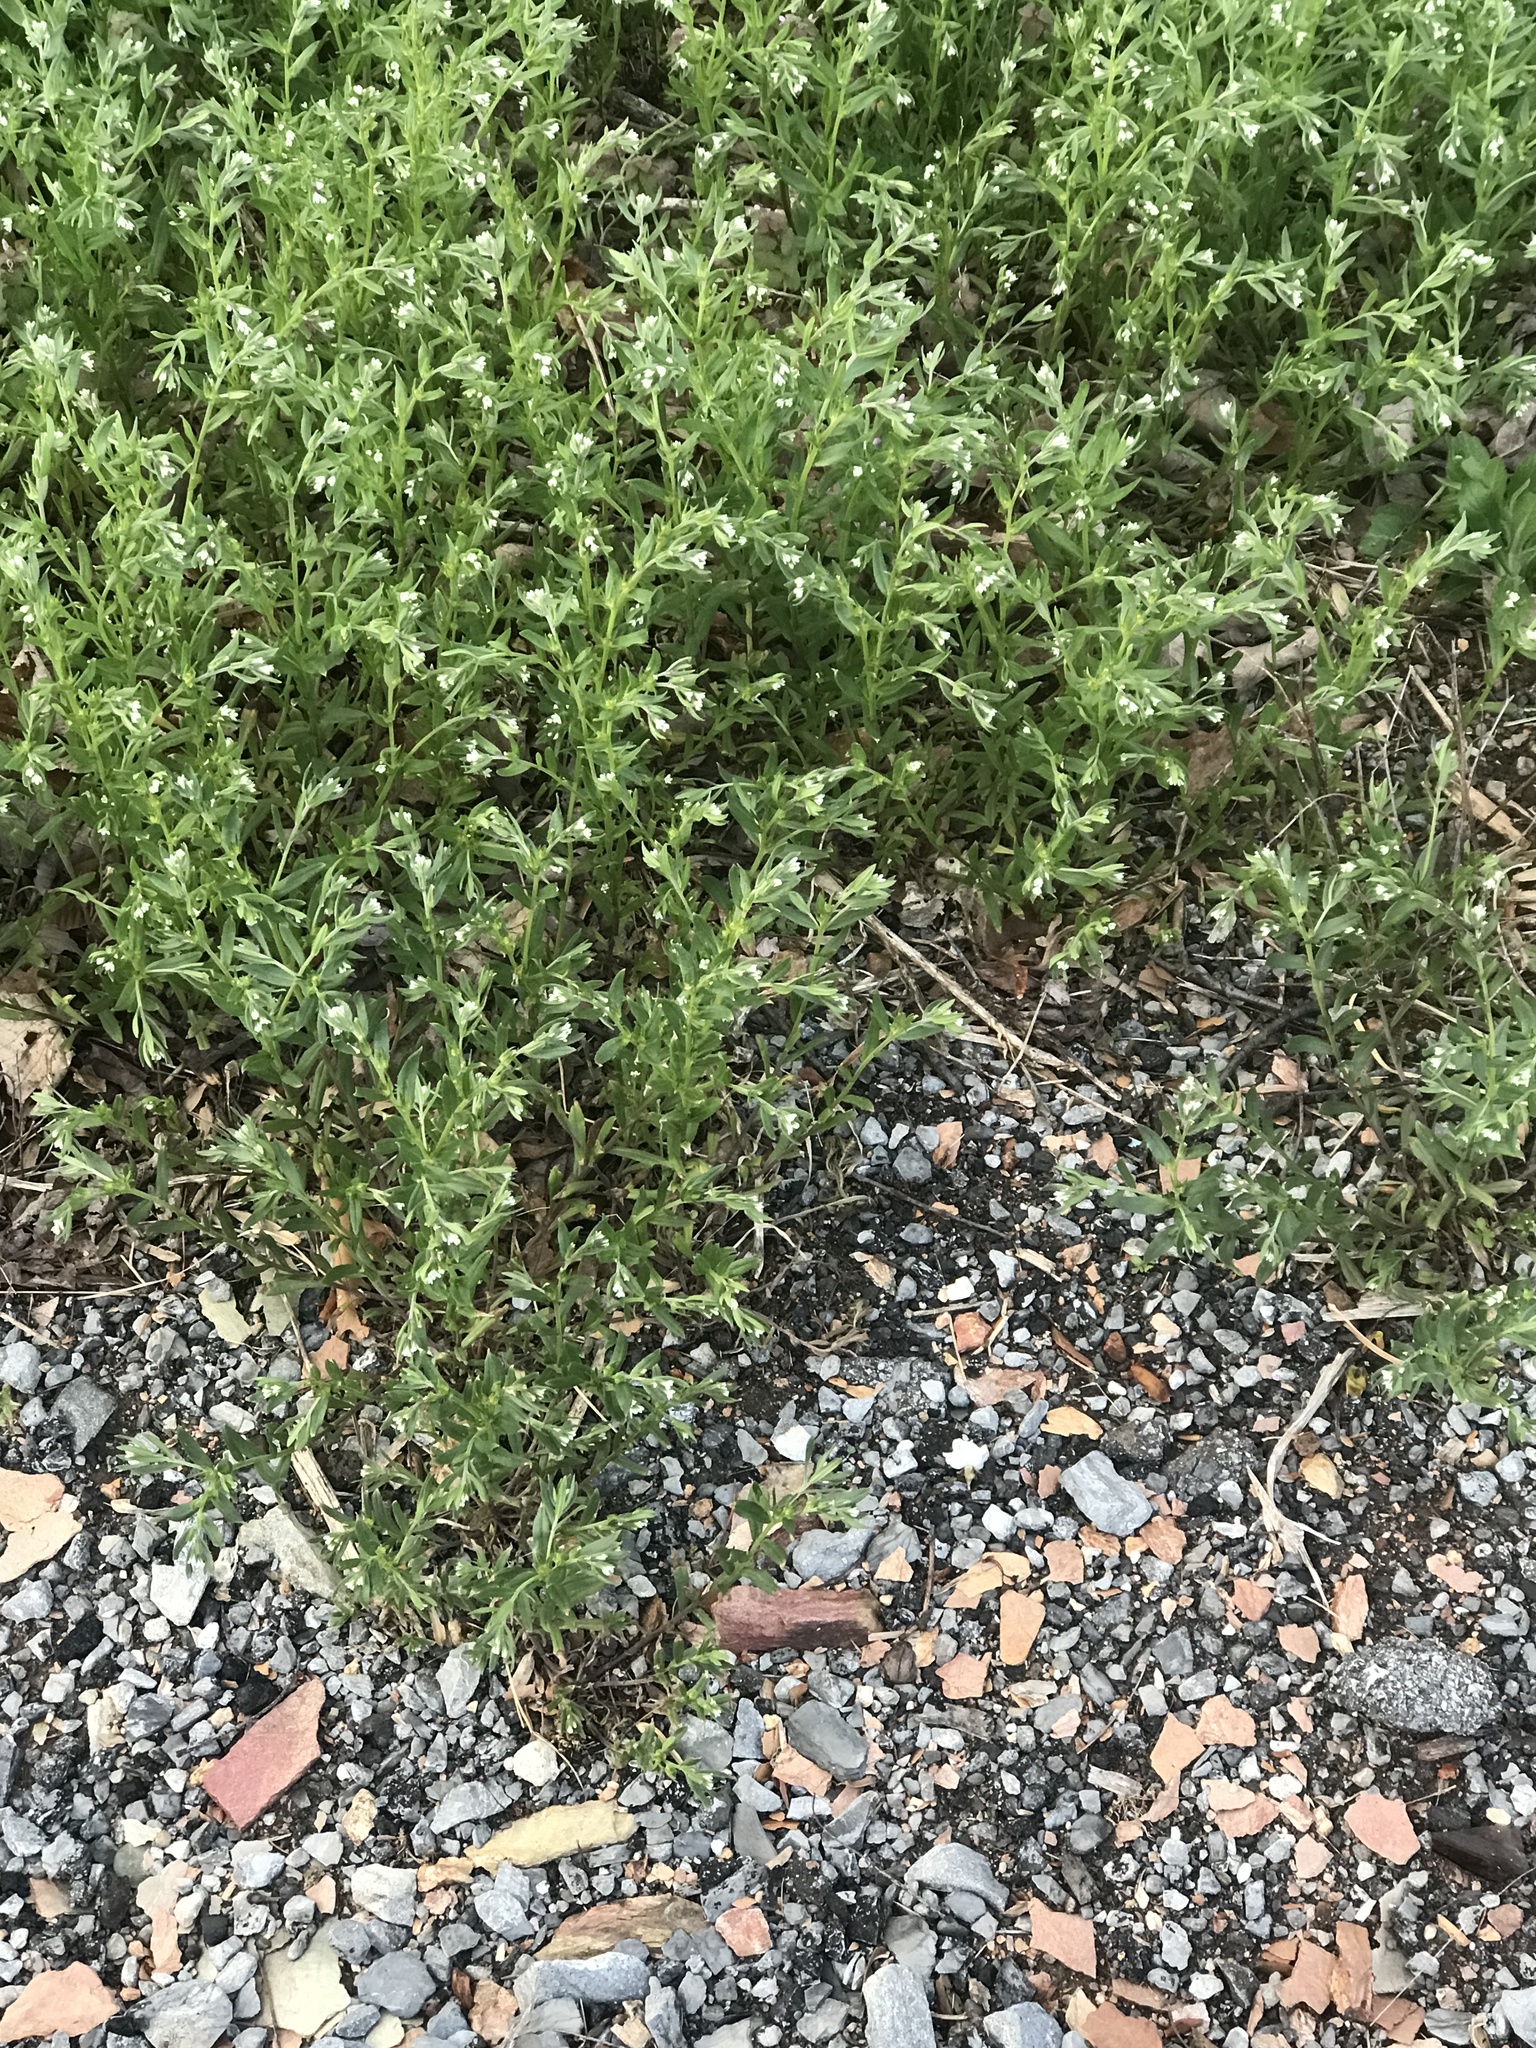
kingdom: Plantae
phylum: Tracheophyta
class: Magnoliopsida
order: Boraginales
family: Boraginaceae
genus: Buglossoides
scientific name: Buglossoides arvensis
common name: Corn gromwell
